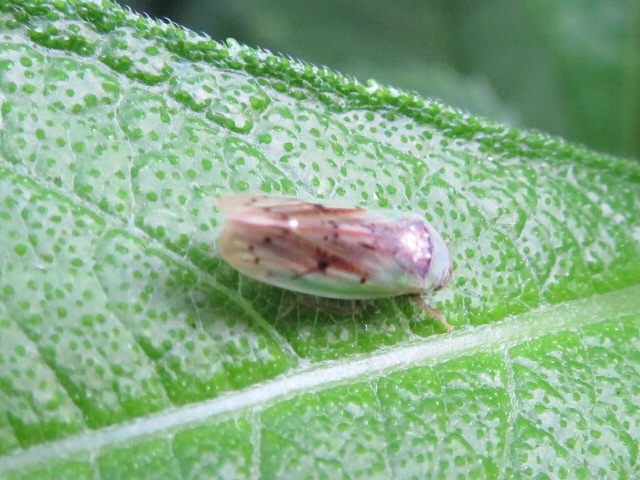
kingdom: Animalia
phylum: Arthropoda
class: Insecta
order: Hemiptera
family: Cicadellidae
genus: Ponana
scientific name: Ponana pectoralis
